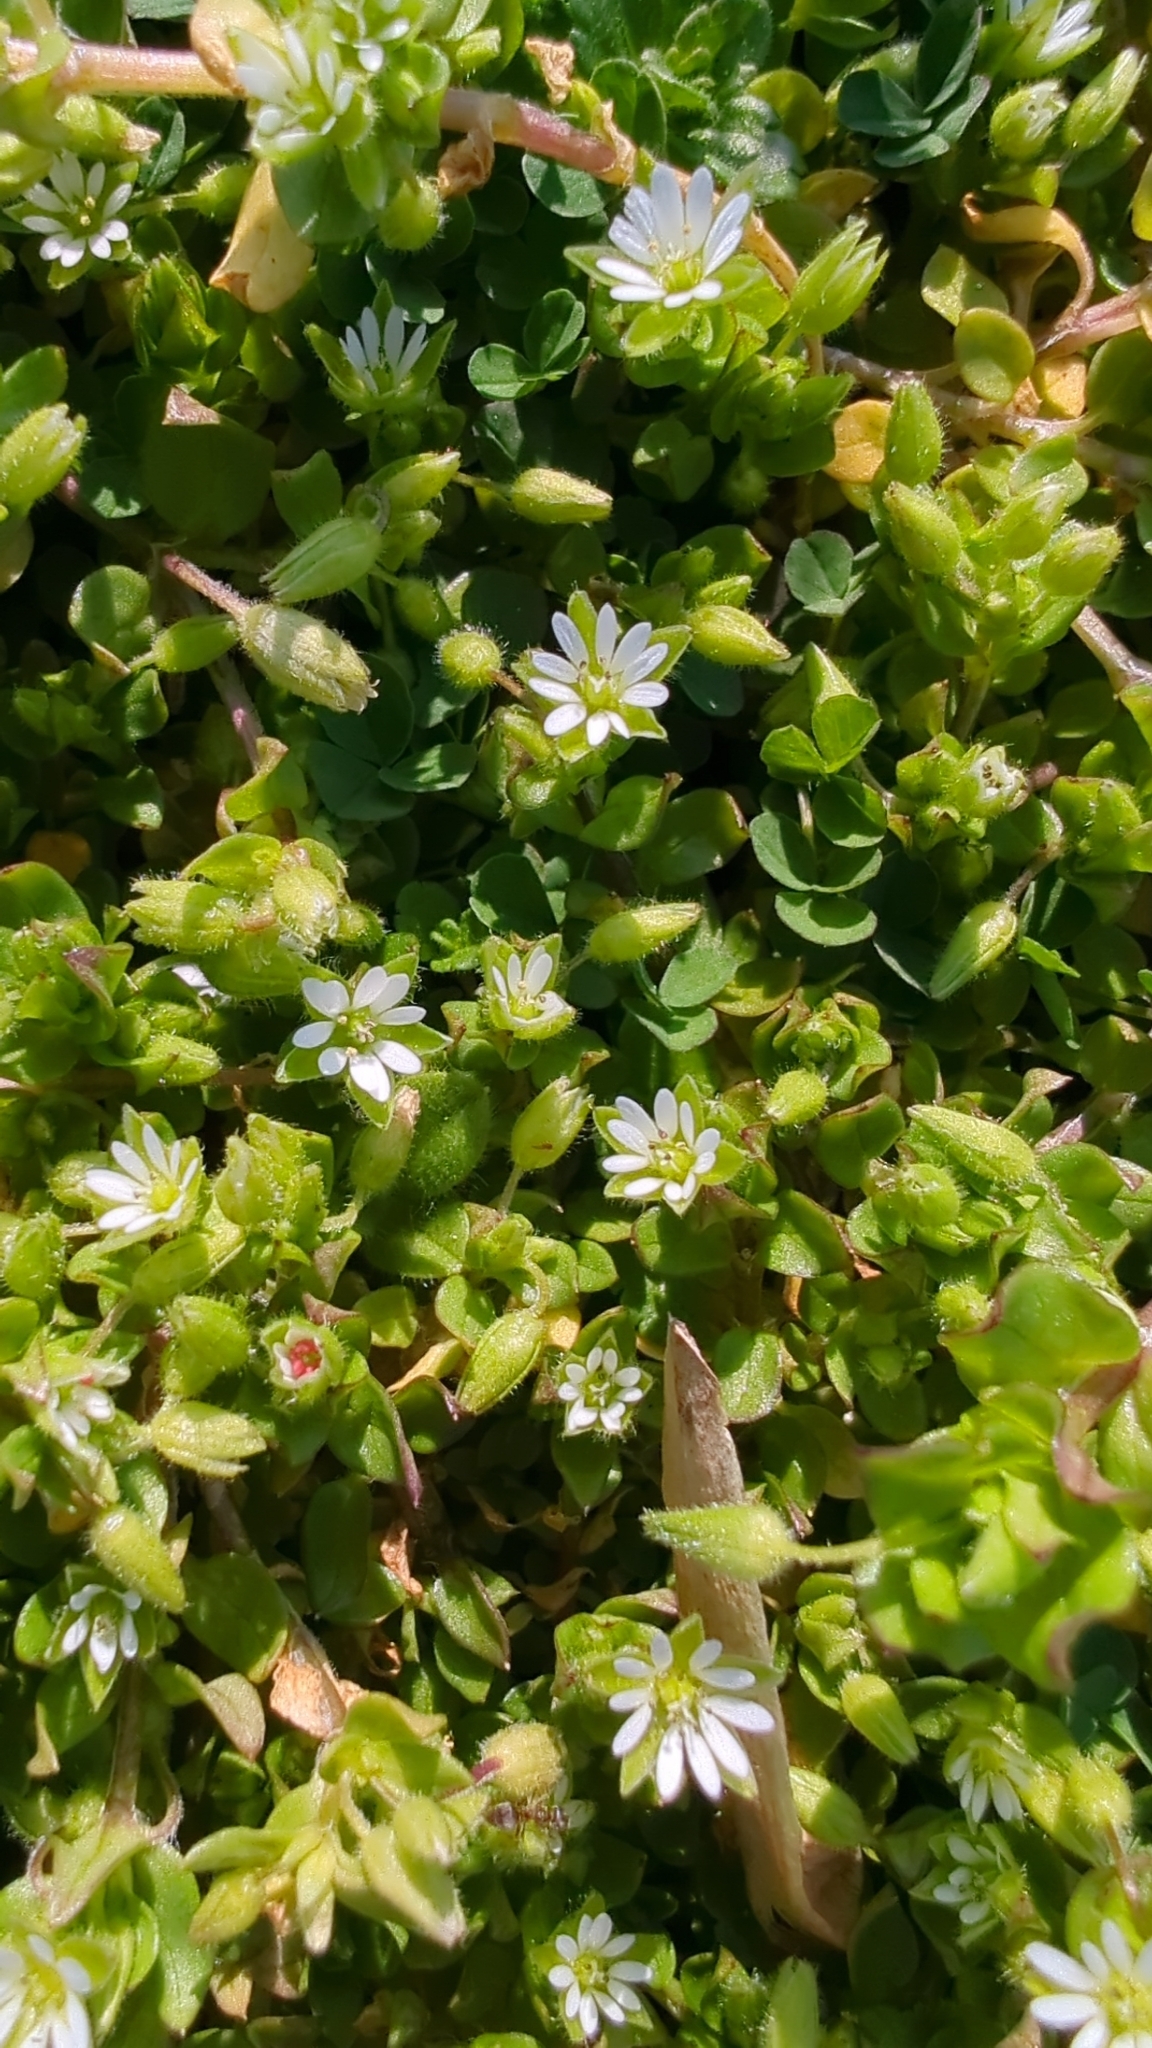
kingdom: Plantae
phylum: Tracheophyta
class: Magnoliopsida
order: Caryophyllales
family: Caryophyllaceae
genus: Stellaria
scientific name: Stellaria media
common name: Common chickweed
